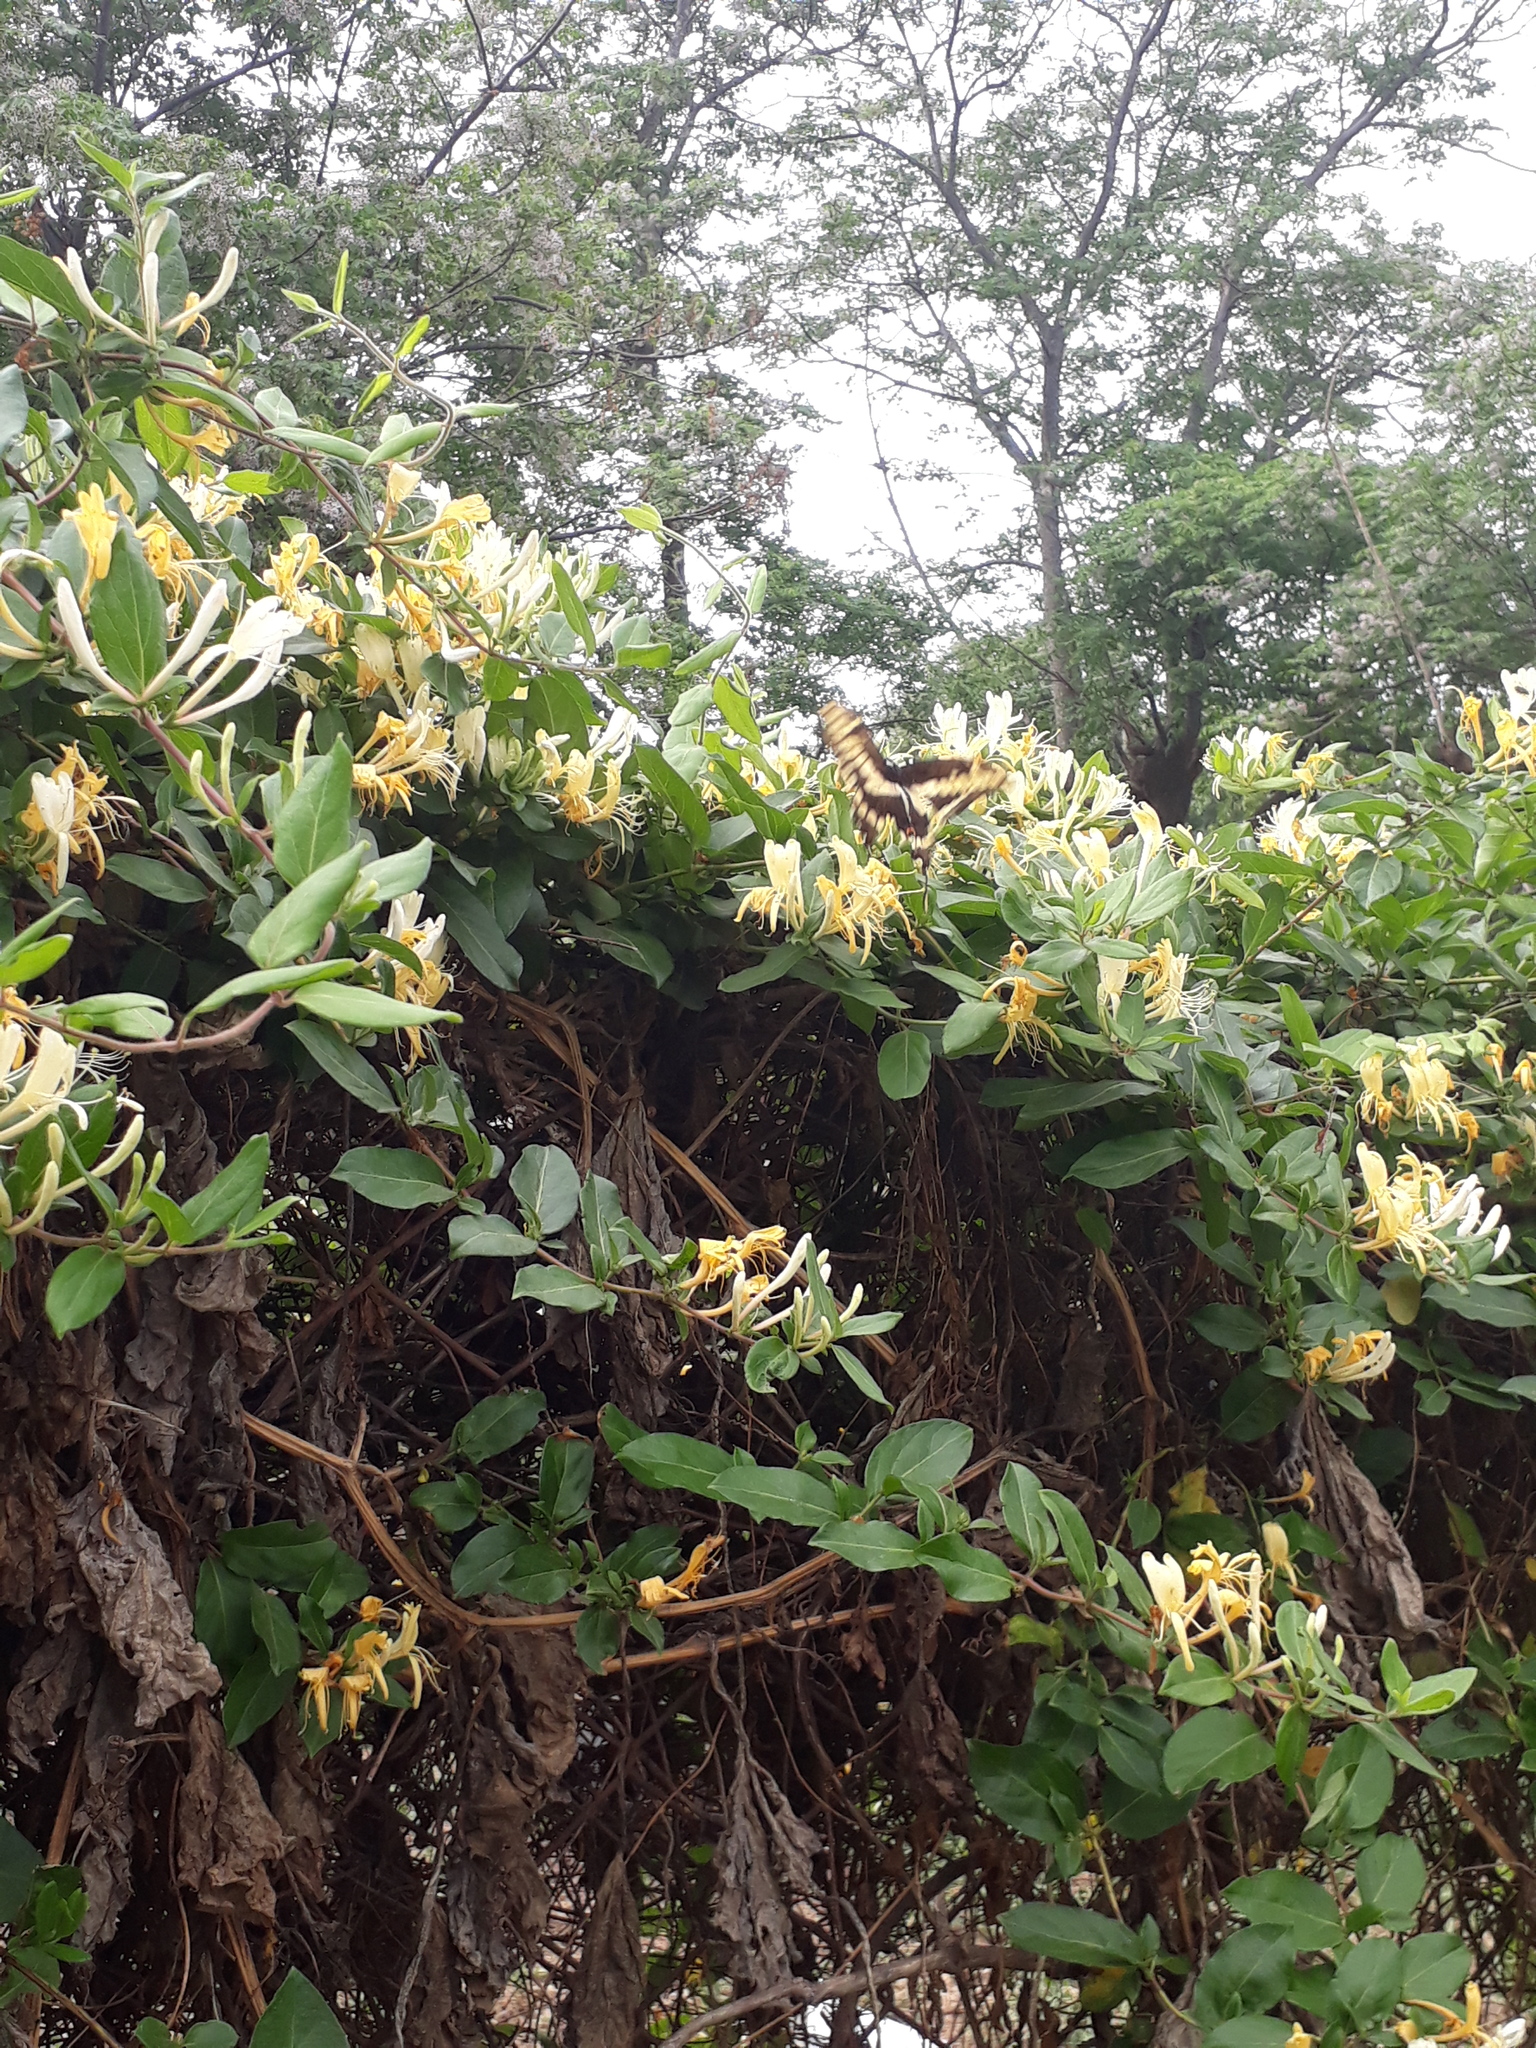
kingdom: Animalia
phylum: Arthropoda
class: Insecta
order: Lepidoptera
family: Papilionidae
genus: Papilio
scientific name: Papilio thoas
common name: King swallowtail
